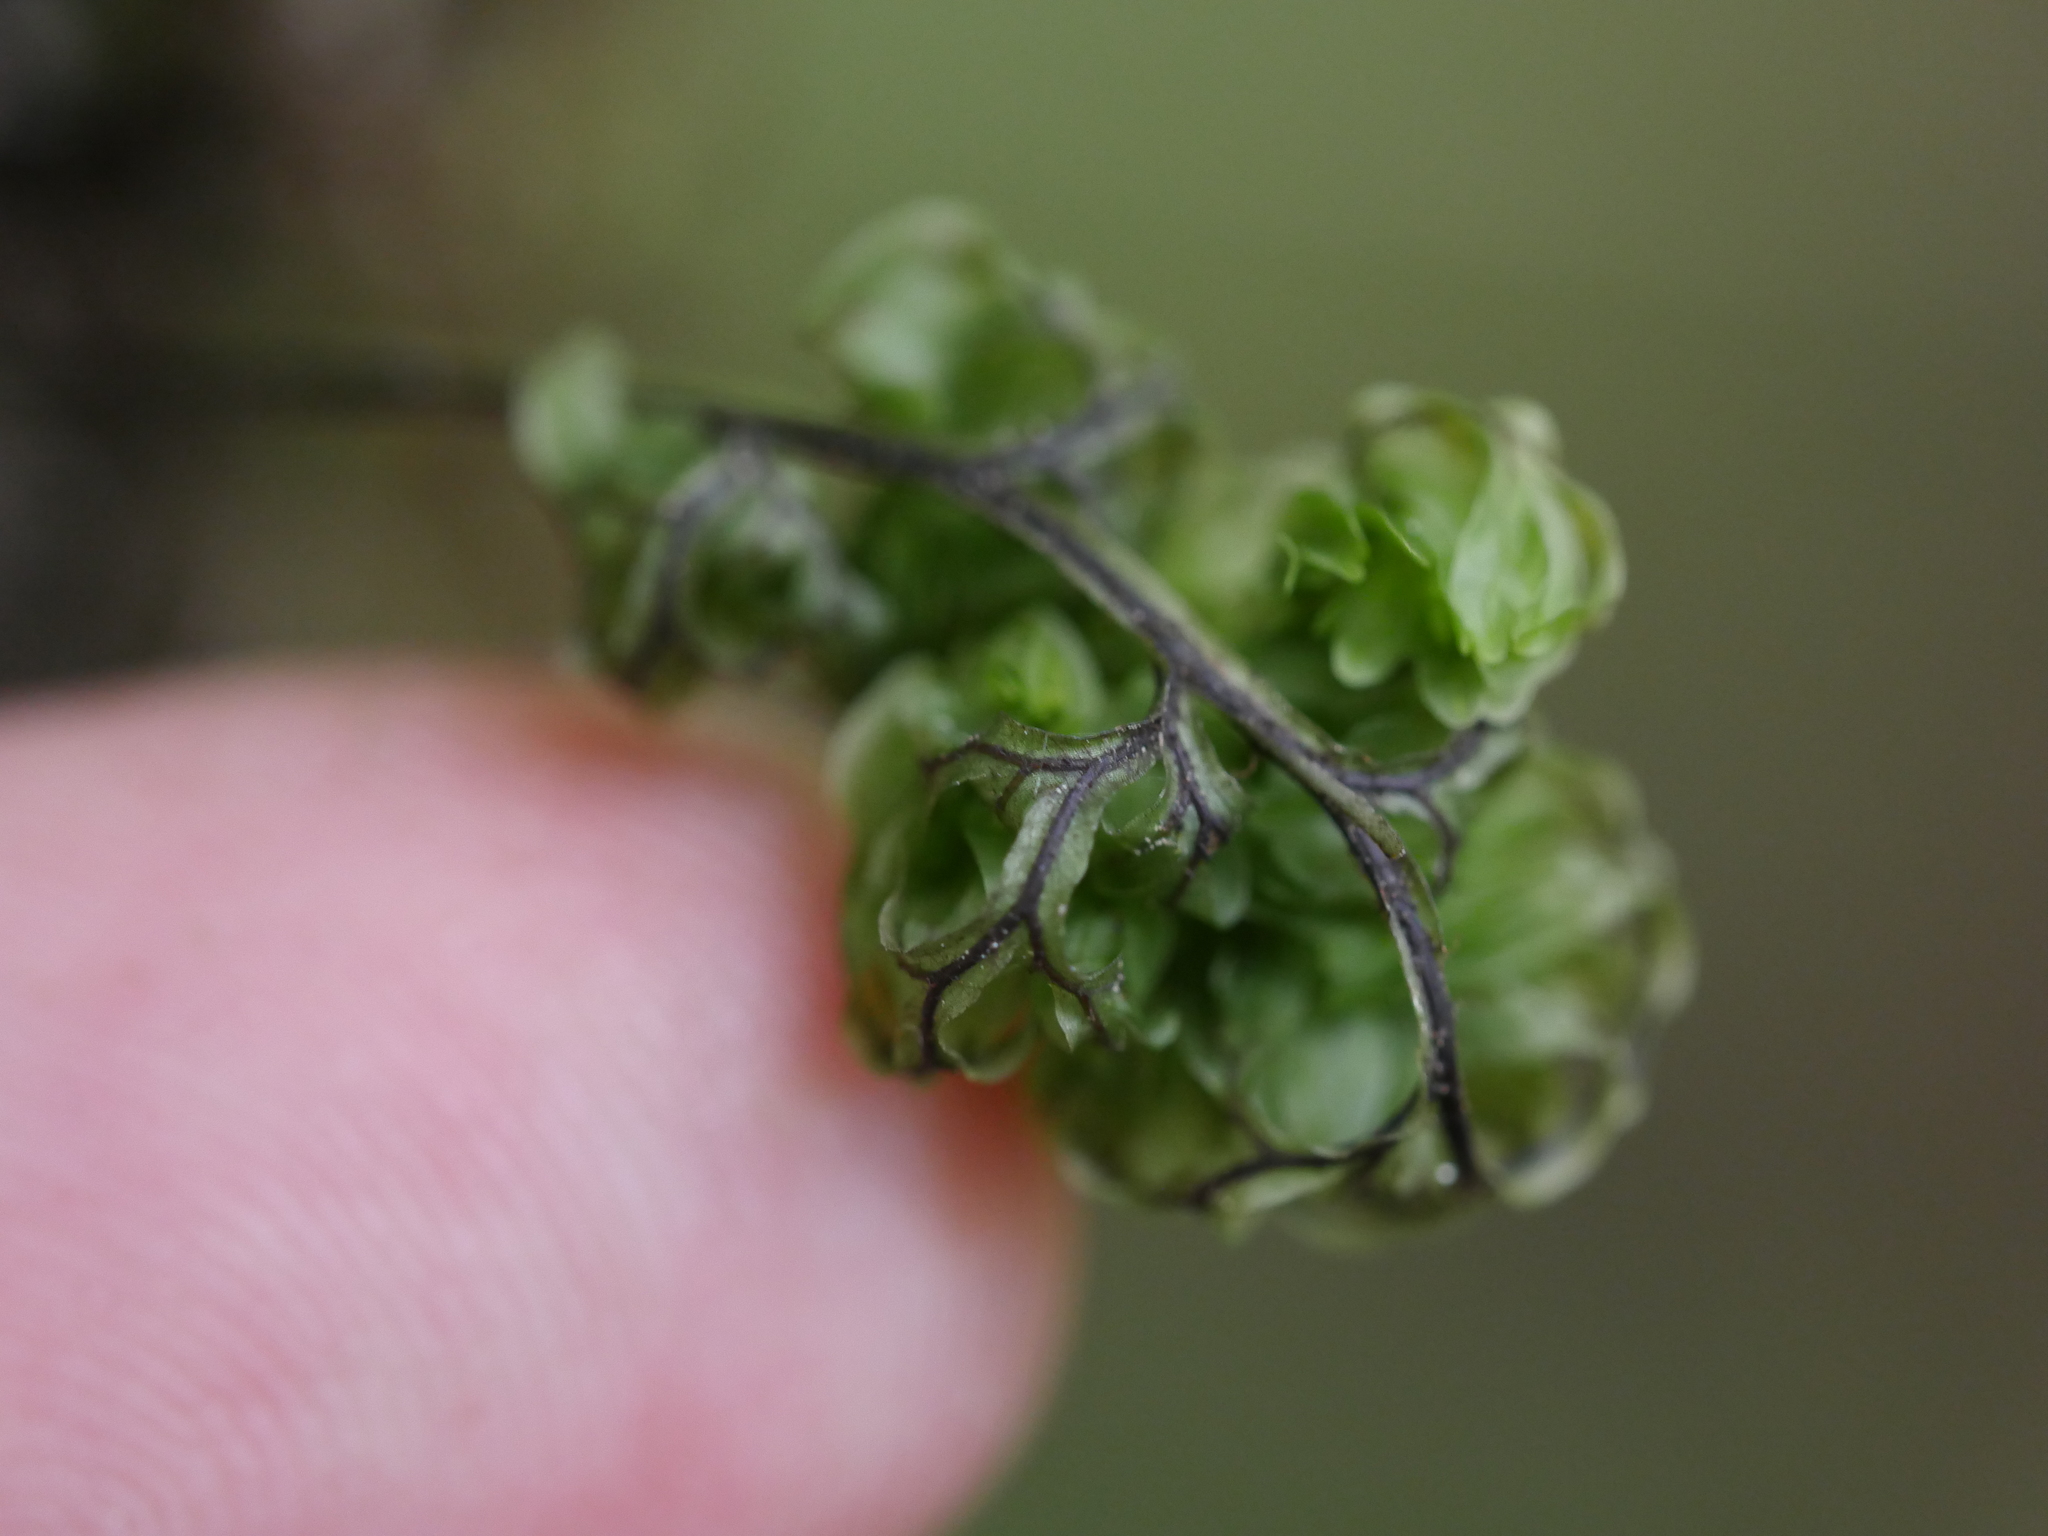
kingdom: Plantae
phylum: Tracheophyta
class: Polypodiopsida
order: Hymenophyllales
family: Hymenophyllaceae
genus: Hymenophyllum
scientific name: Hymenophyllum sanguinolentum
